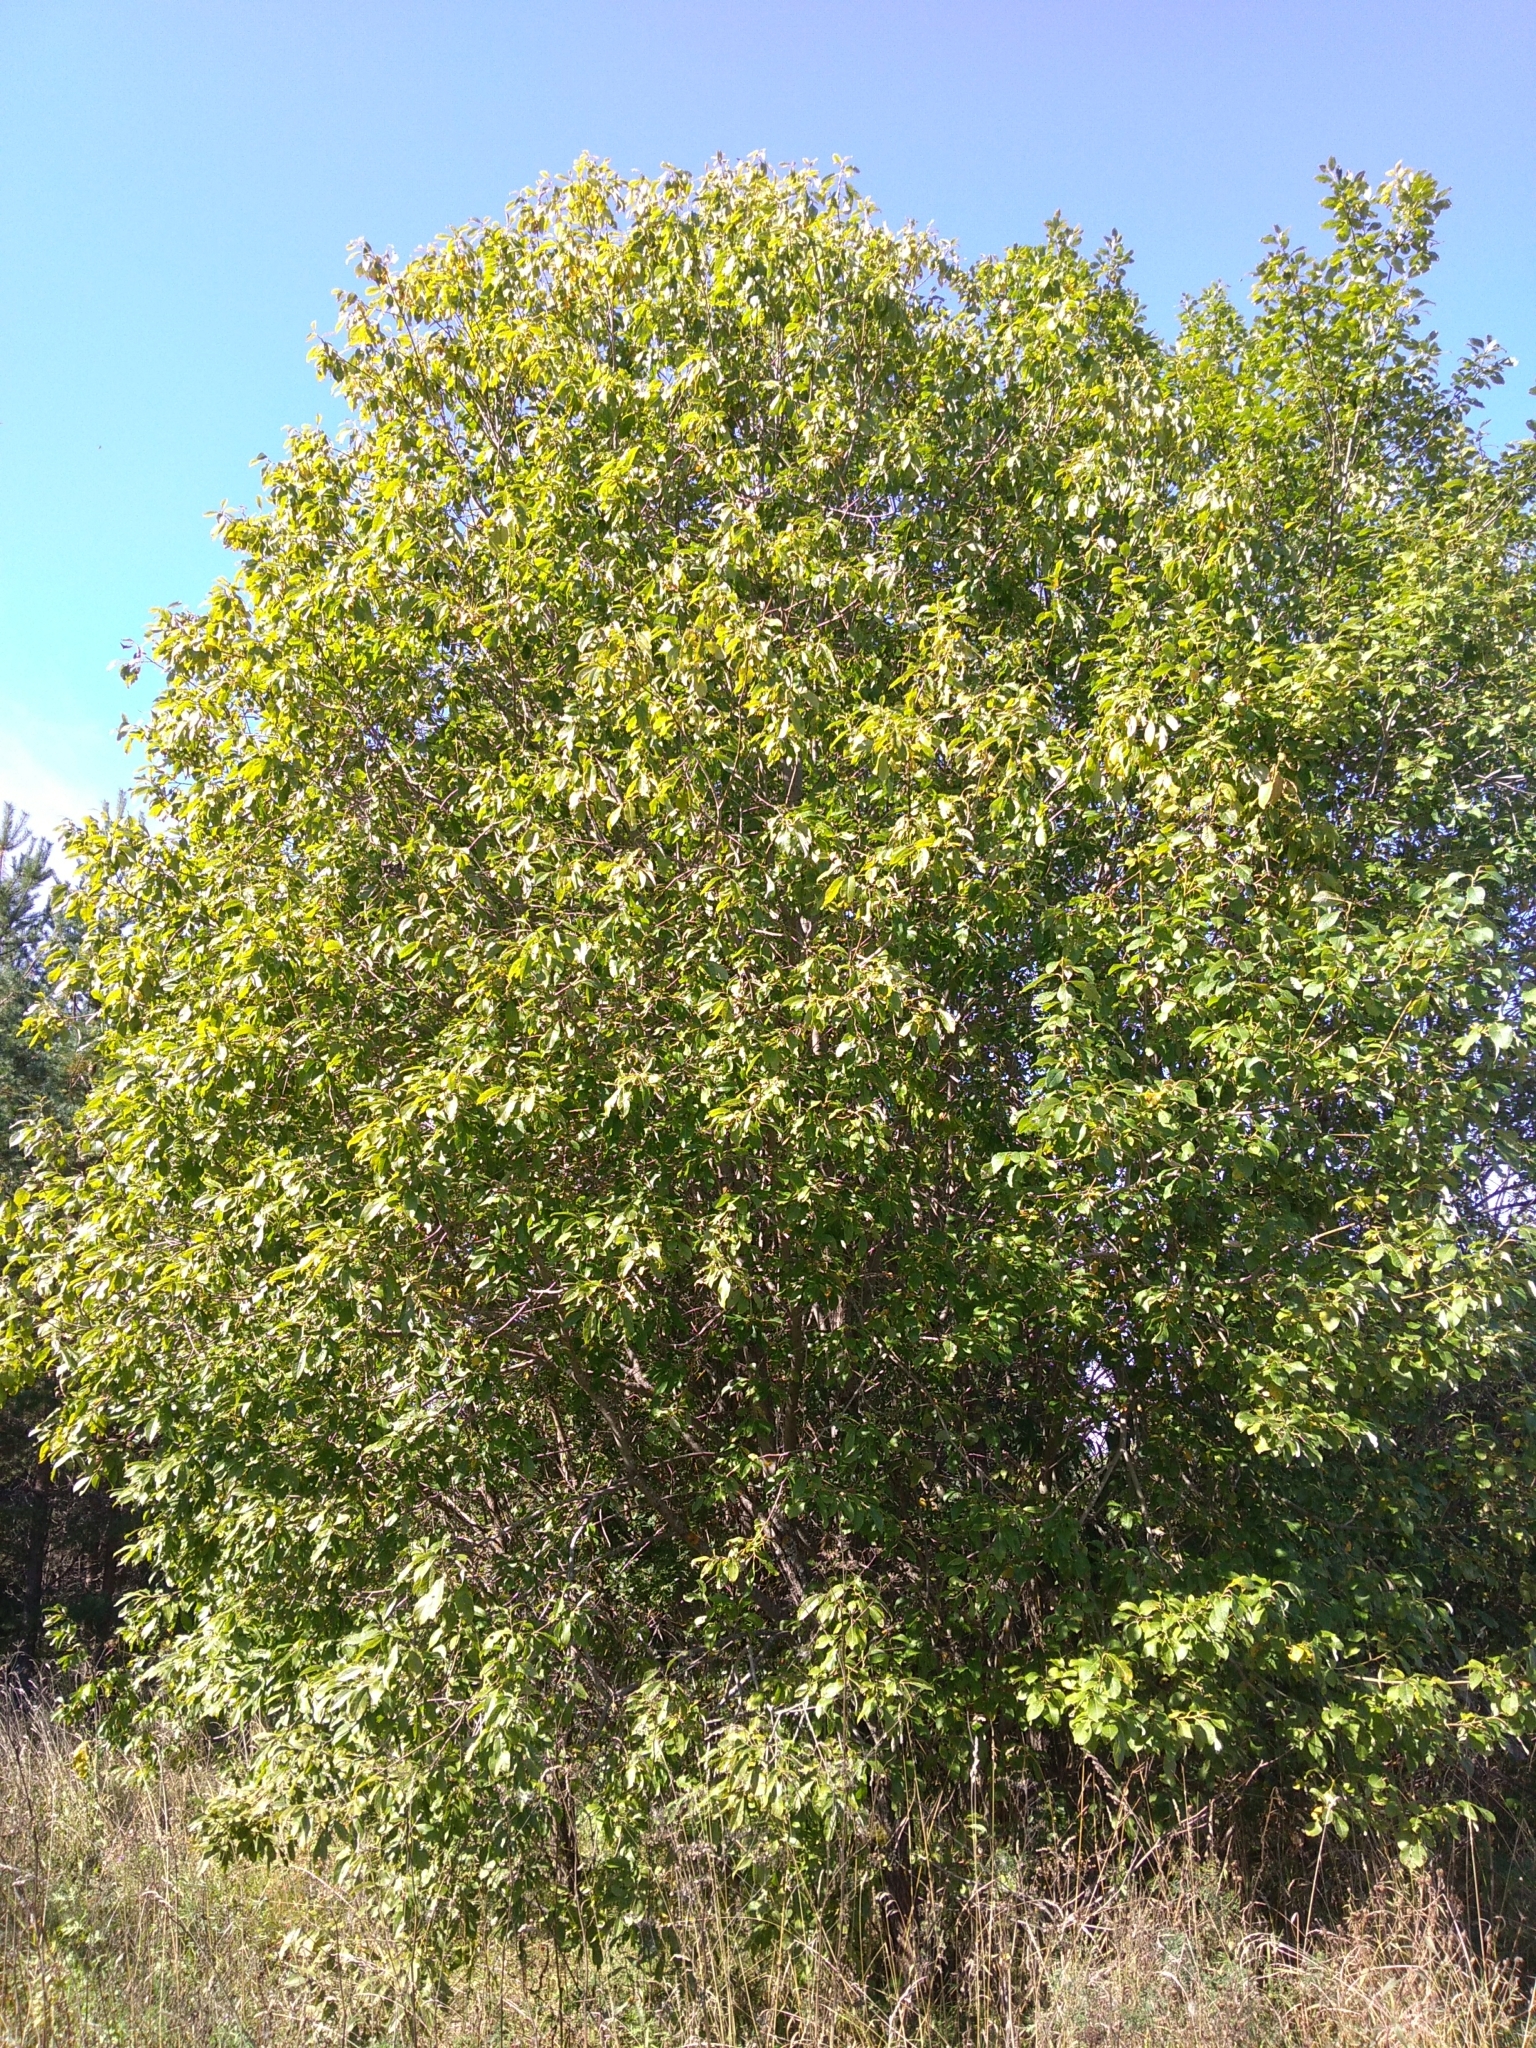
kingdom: Plantae
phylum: Tracheophyta
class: Magnoliopsida
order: Malpighiales
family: Salicaceae
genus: Salix
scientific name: Salix caprea
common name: Goat willow
